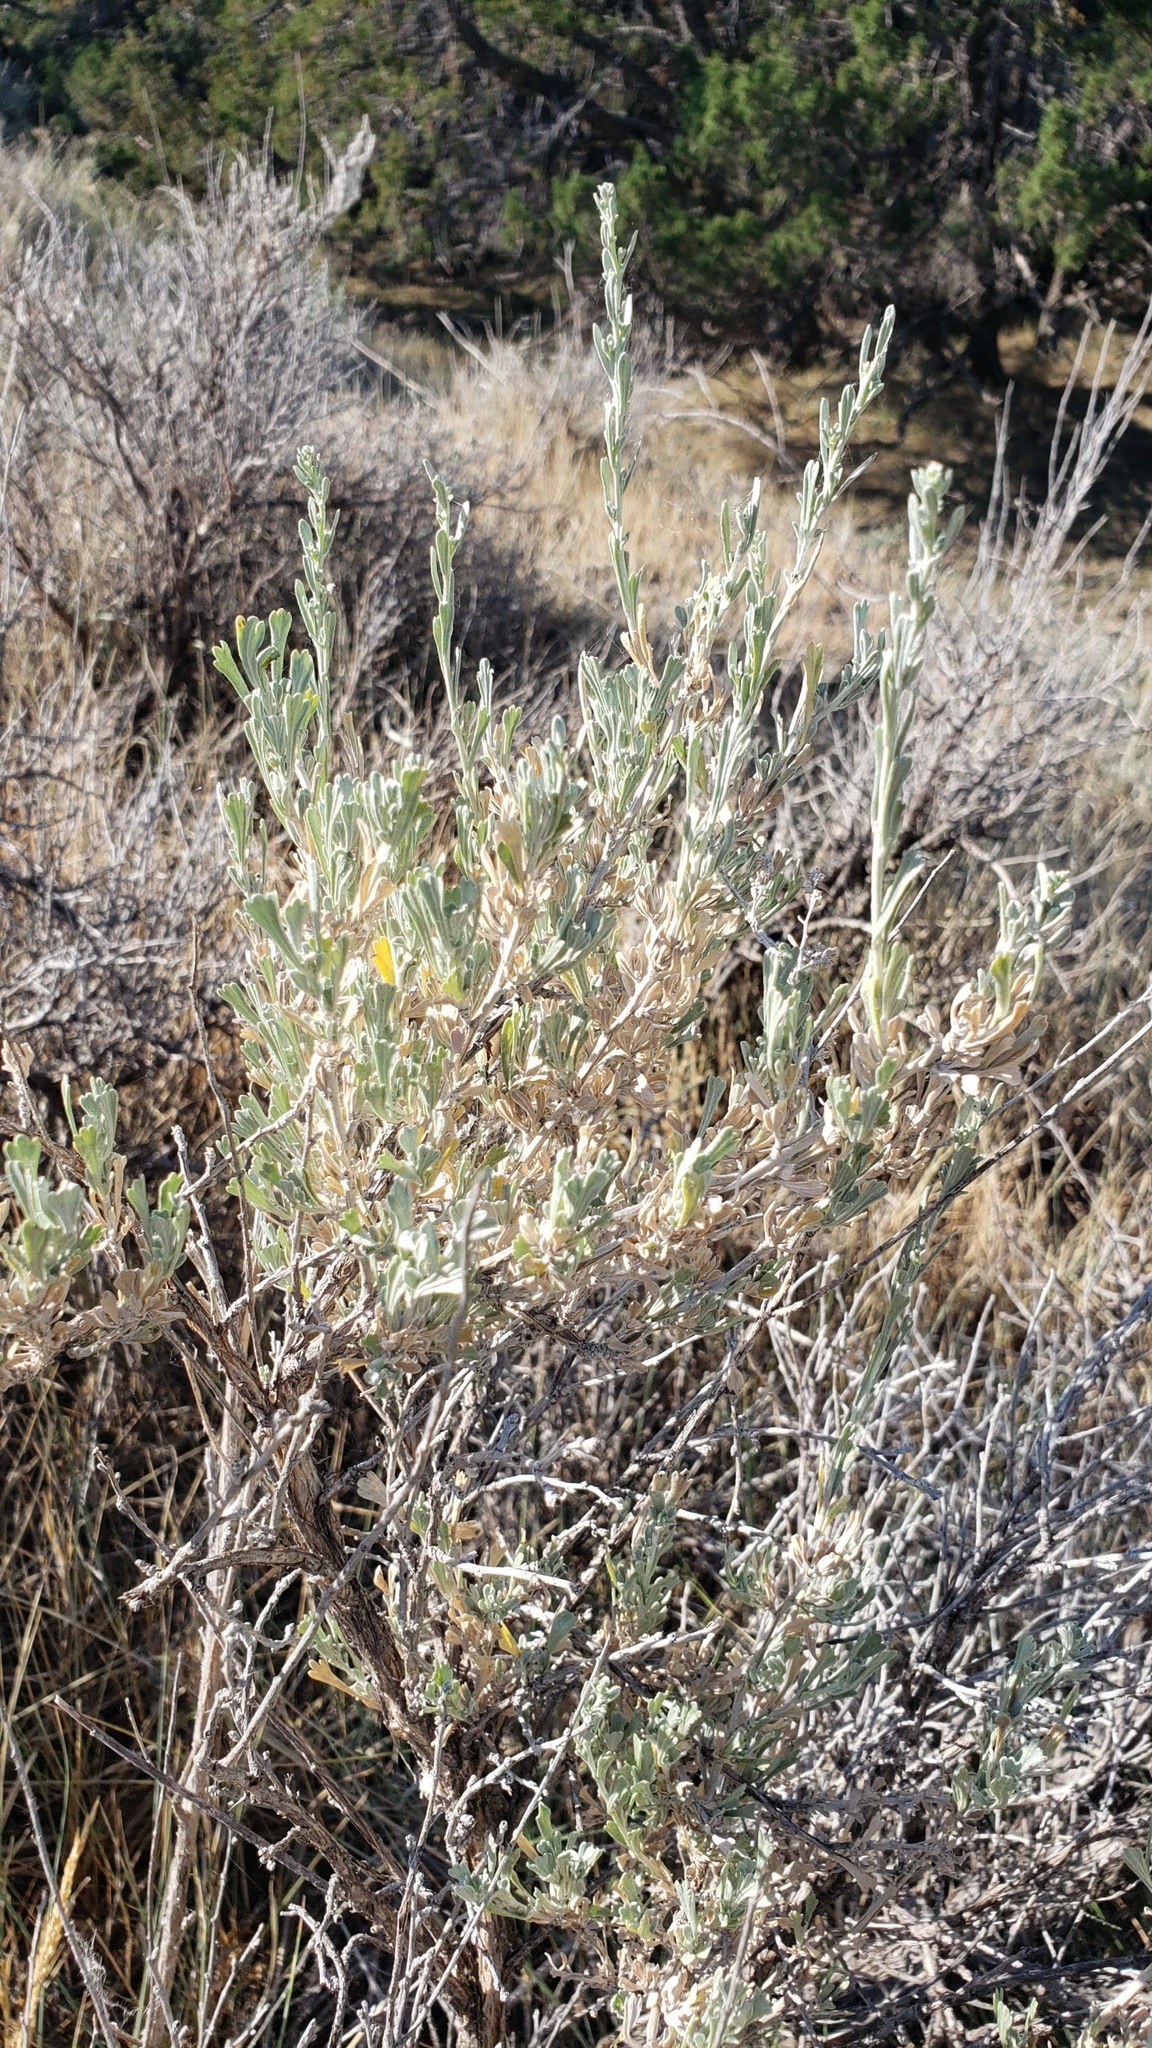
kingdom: Plantae
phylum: Tracheophyta
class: Magnoliopsida
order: Asterales
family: Asteraceae
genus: Artemisia
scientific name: Artemisia tridentata
